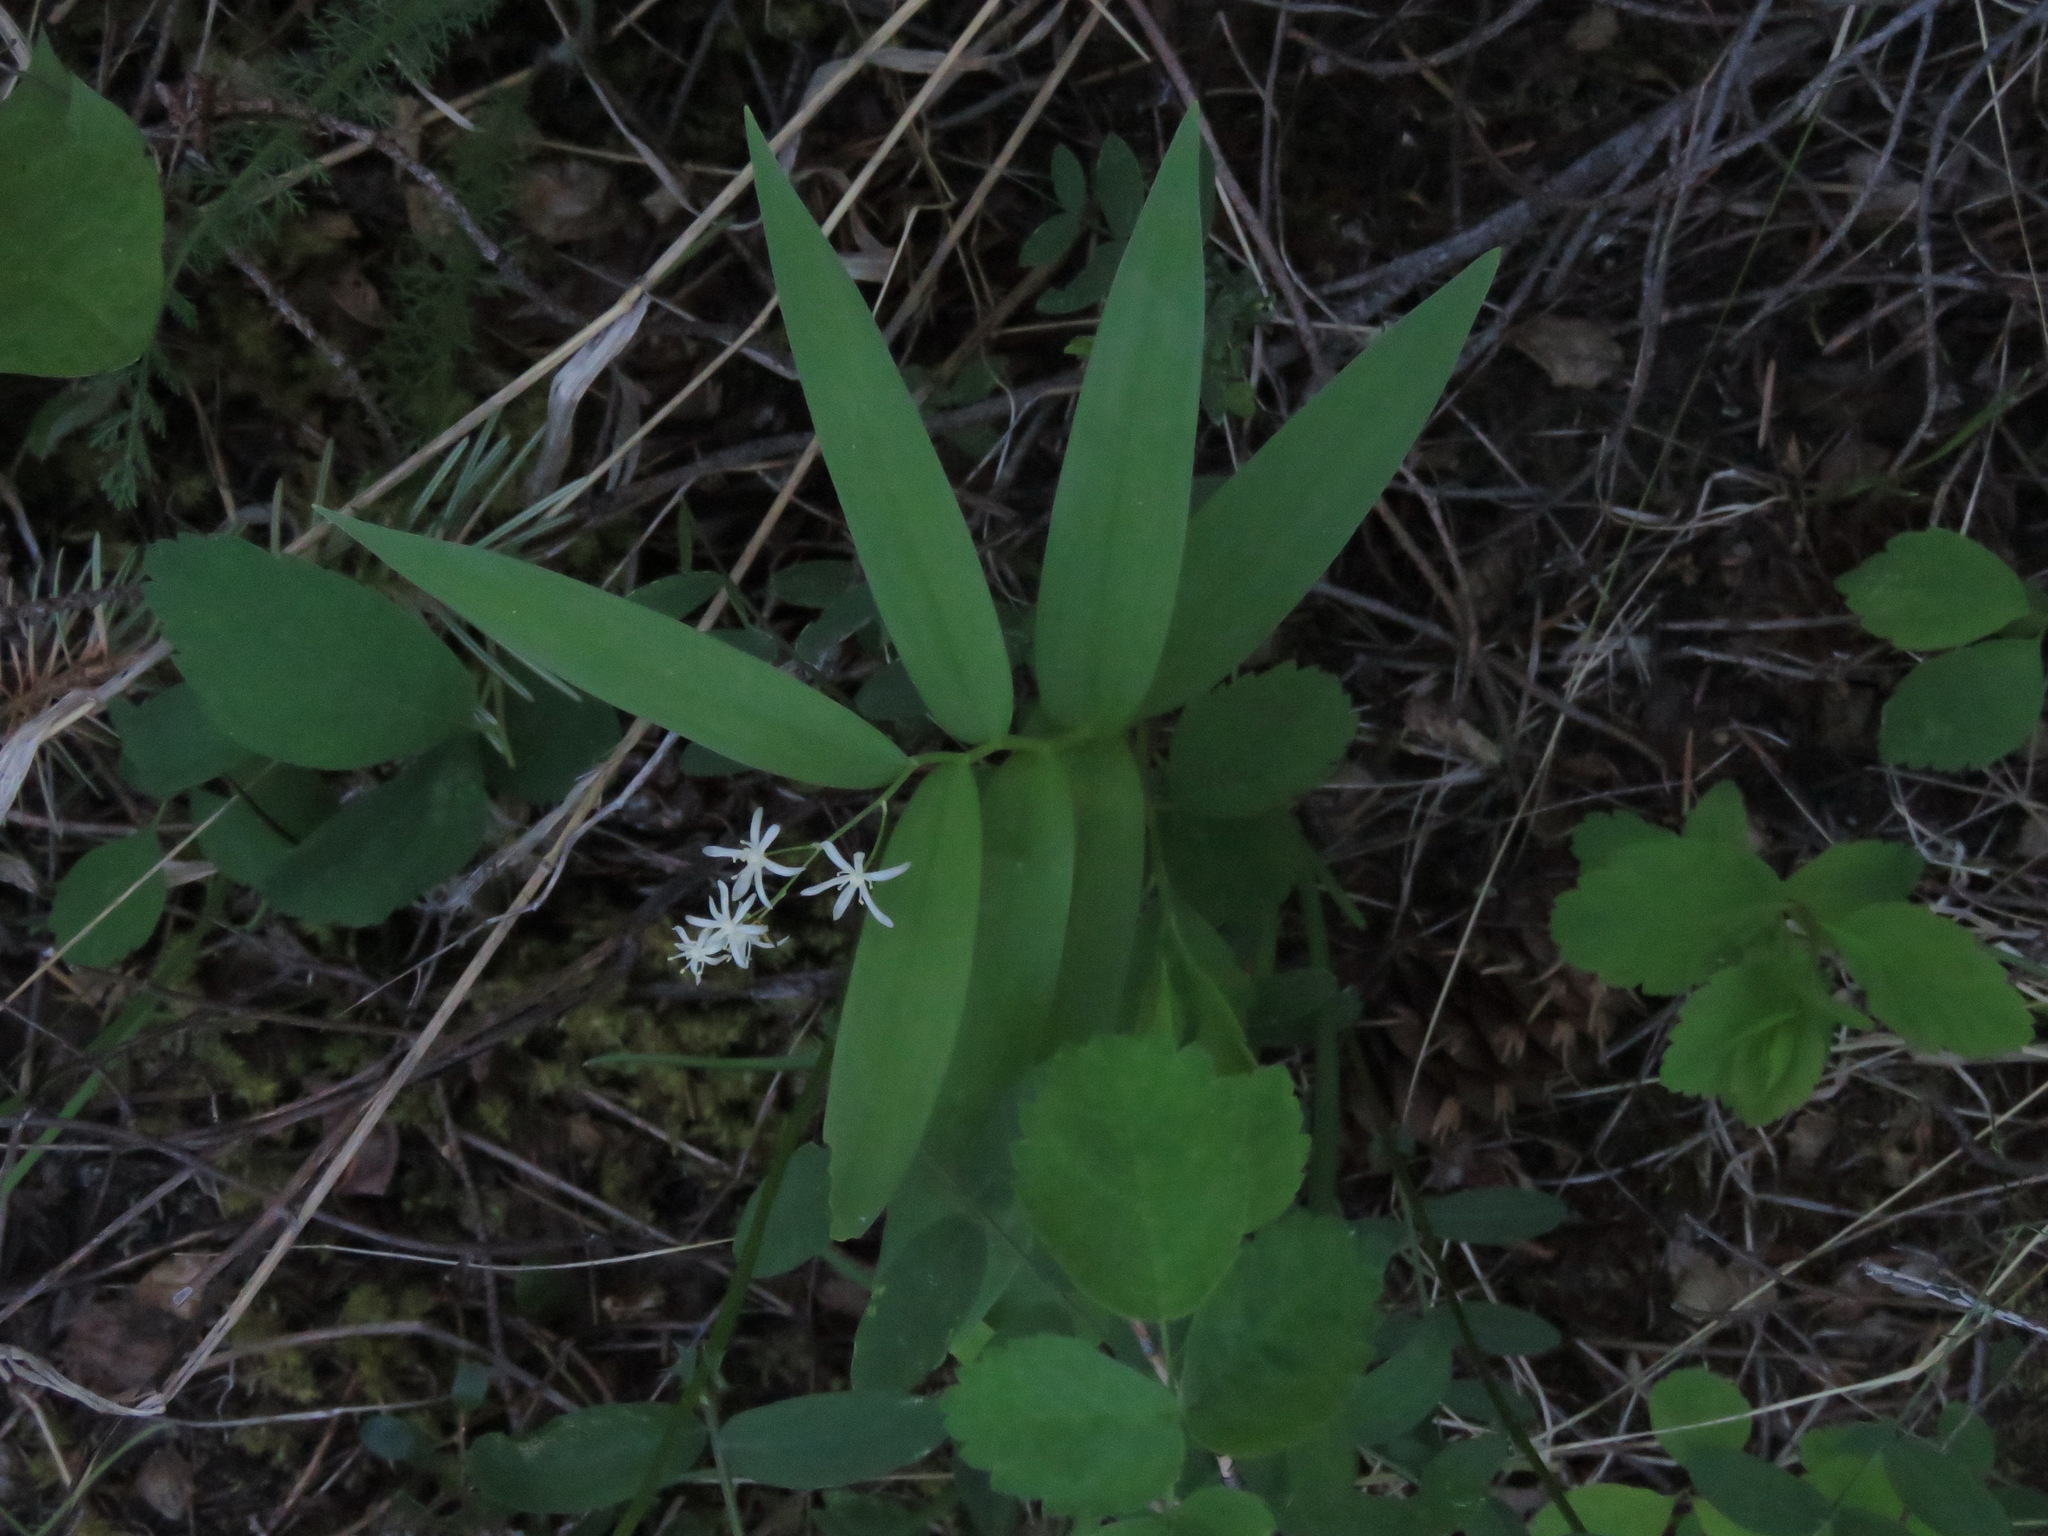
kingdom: Plantae
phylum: Tracheophyta
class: Liliopsida
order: Asparagales
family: Asparagaceae
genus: Maianthemum
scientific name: Maianthemum stellatum
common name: Little false solomon's seal
